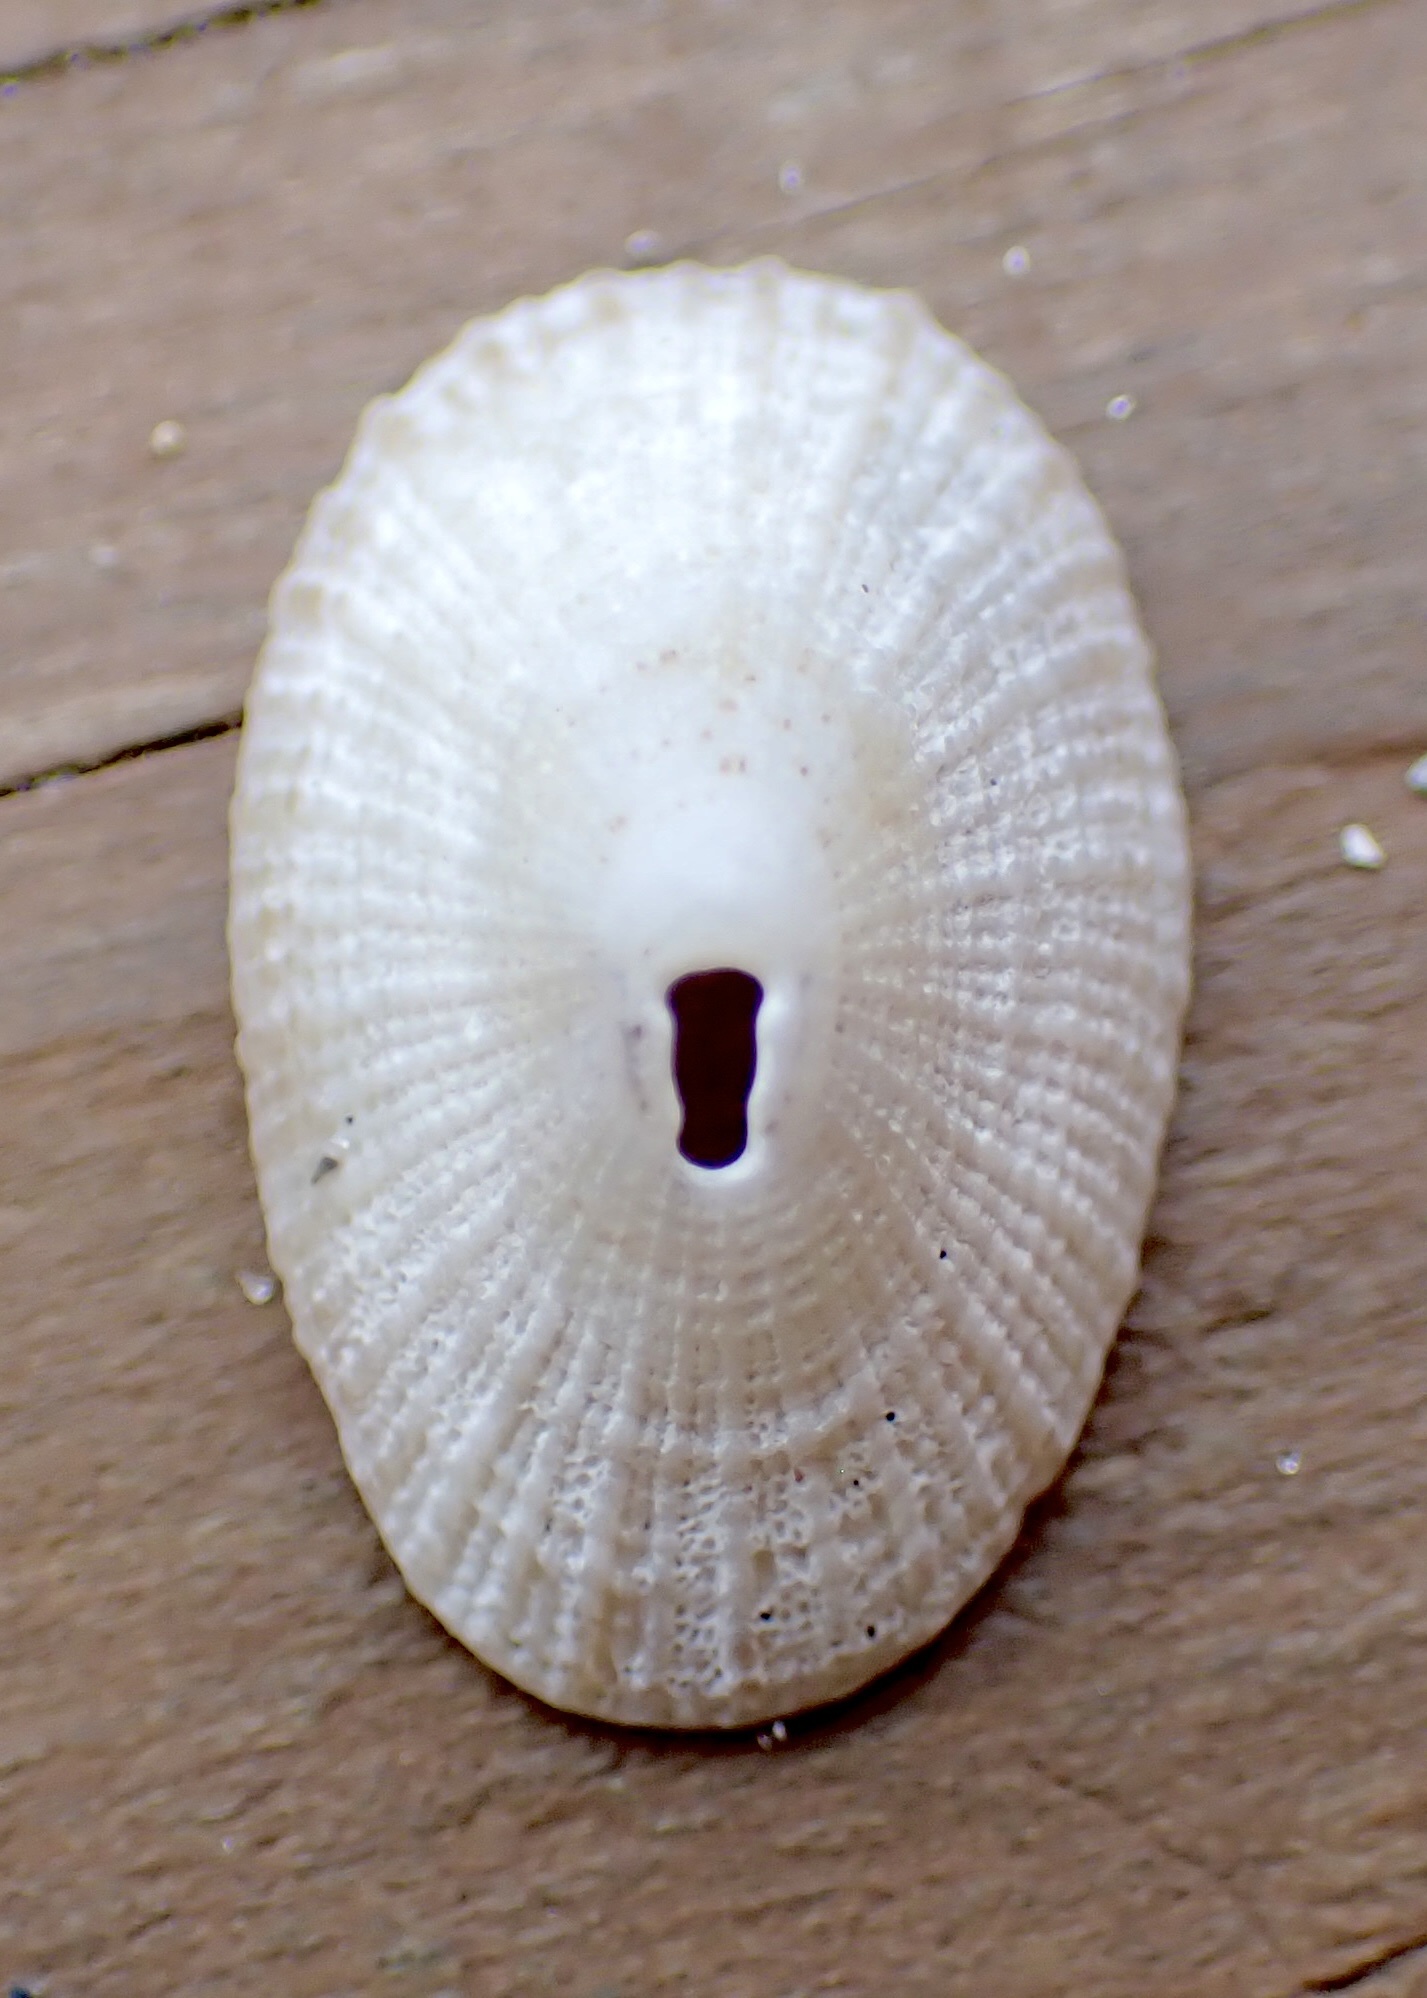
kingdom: Animalia
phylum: Mollusca
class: Gastropoda
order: Lepetellida
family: Fissurellidae
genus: Diodora
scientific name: Diodora cayenensis
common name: Cayenne keyhole limpet
